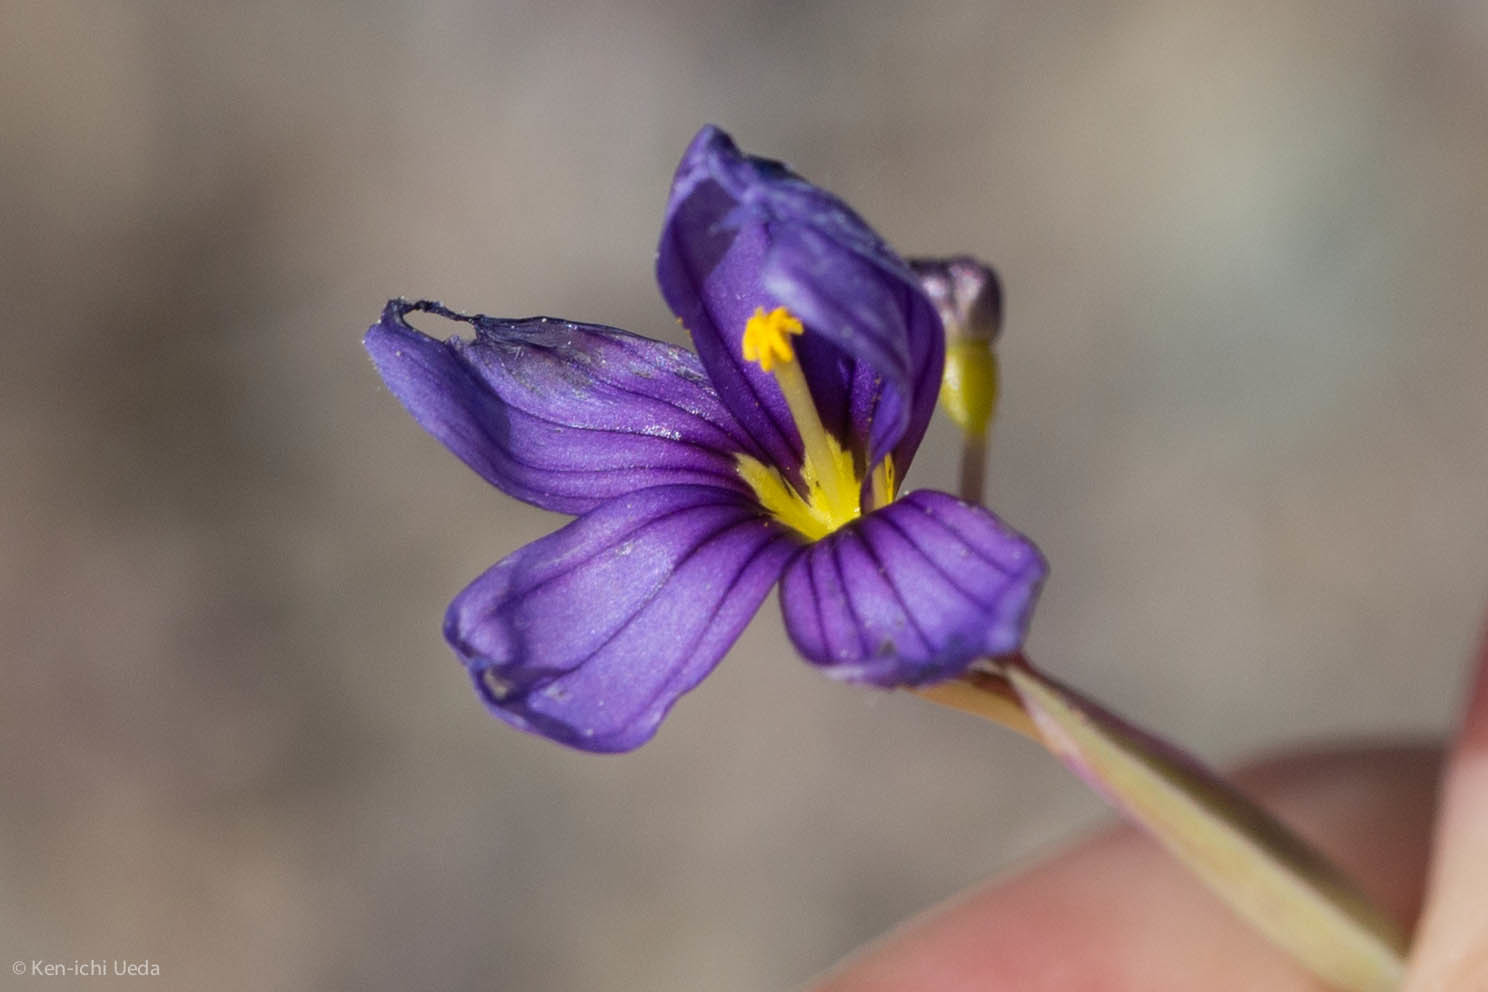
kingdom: Plantae
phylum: Tracheophyta
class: Liliopsida
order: Asparagales
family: Iridaceae
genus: Sisyrinchium
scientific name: Sisyrinchium bellum
